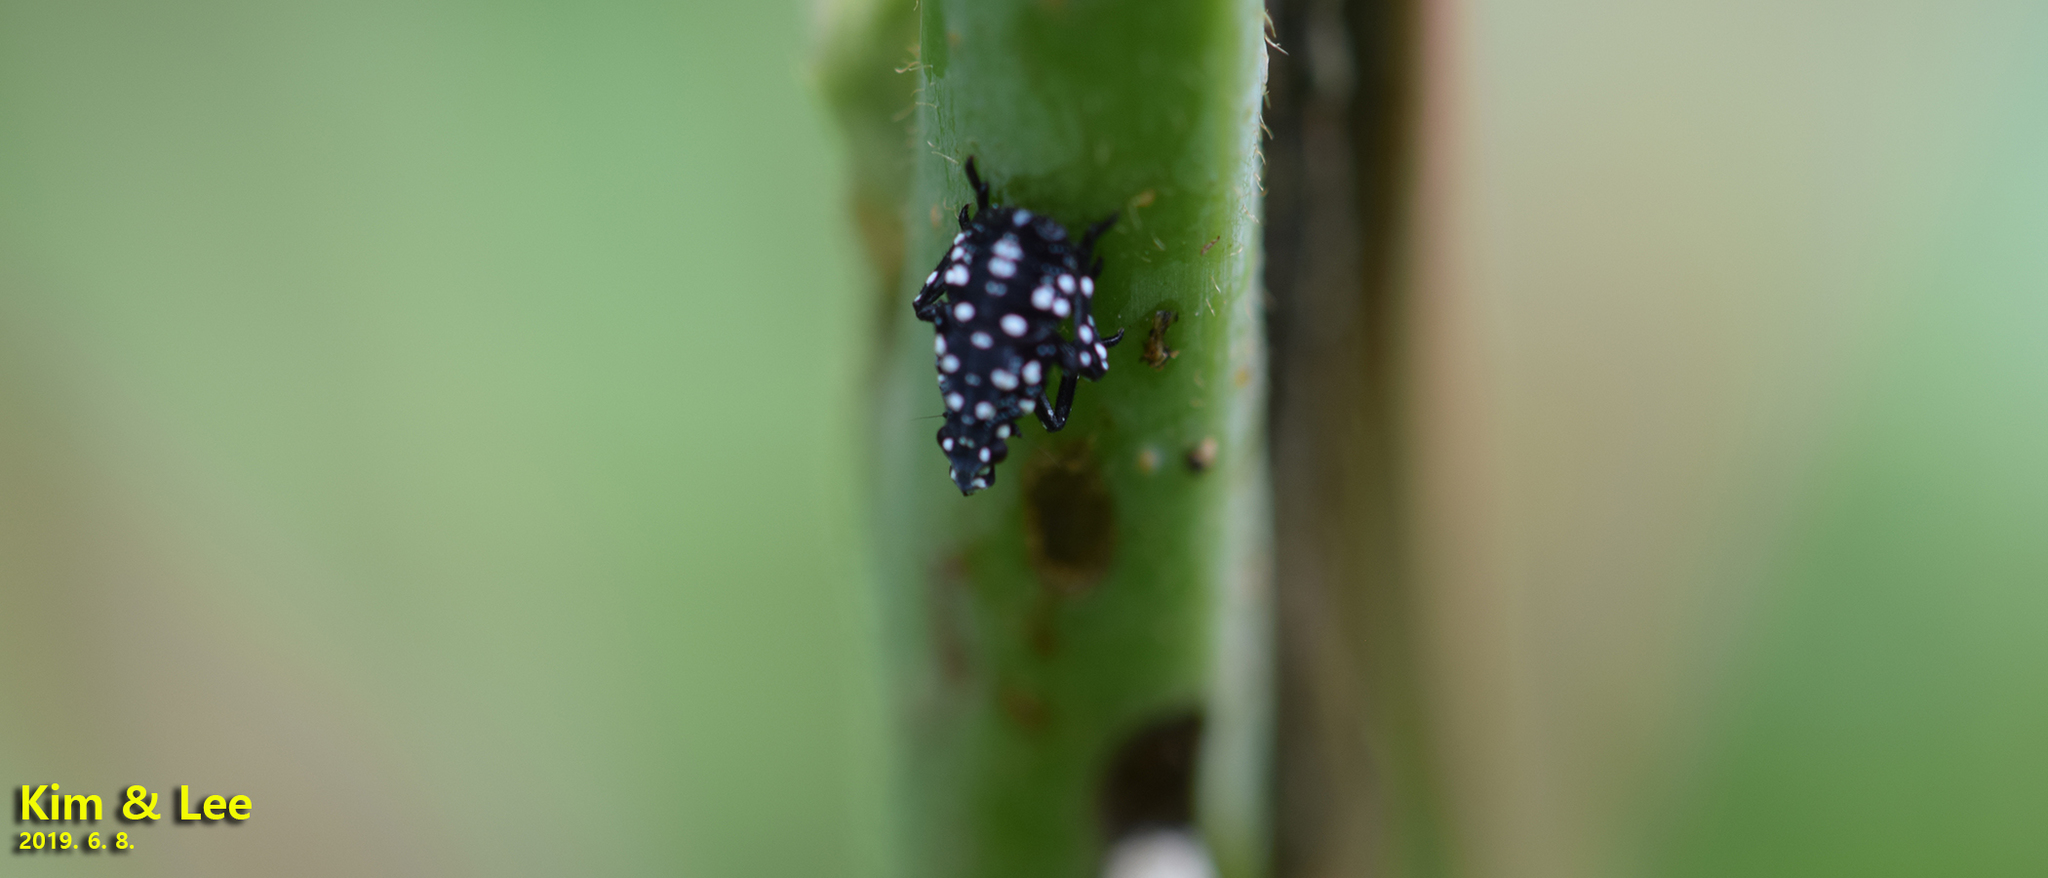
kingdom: Animalia
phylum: Arthropoda
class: Insecta
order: Hemiptera
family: Fulgoridae
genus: Lycorma
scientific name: Lycorma delicatula
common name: Spotted lanternfly
